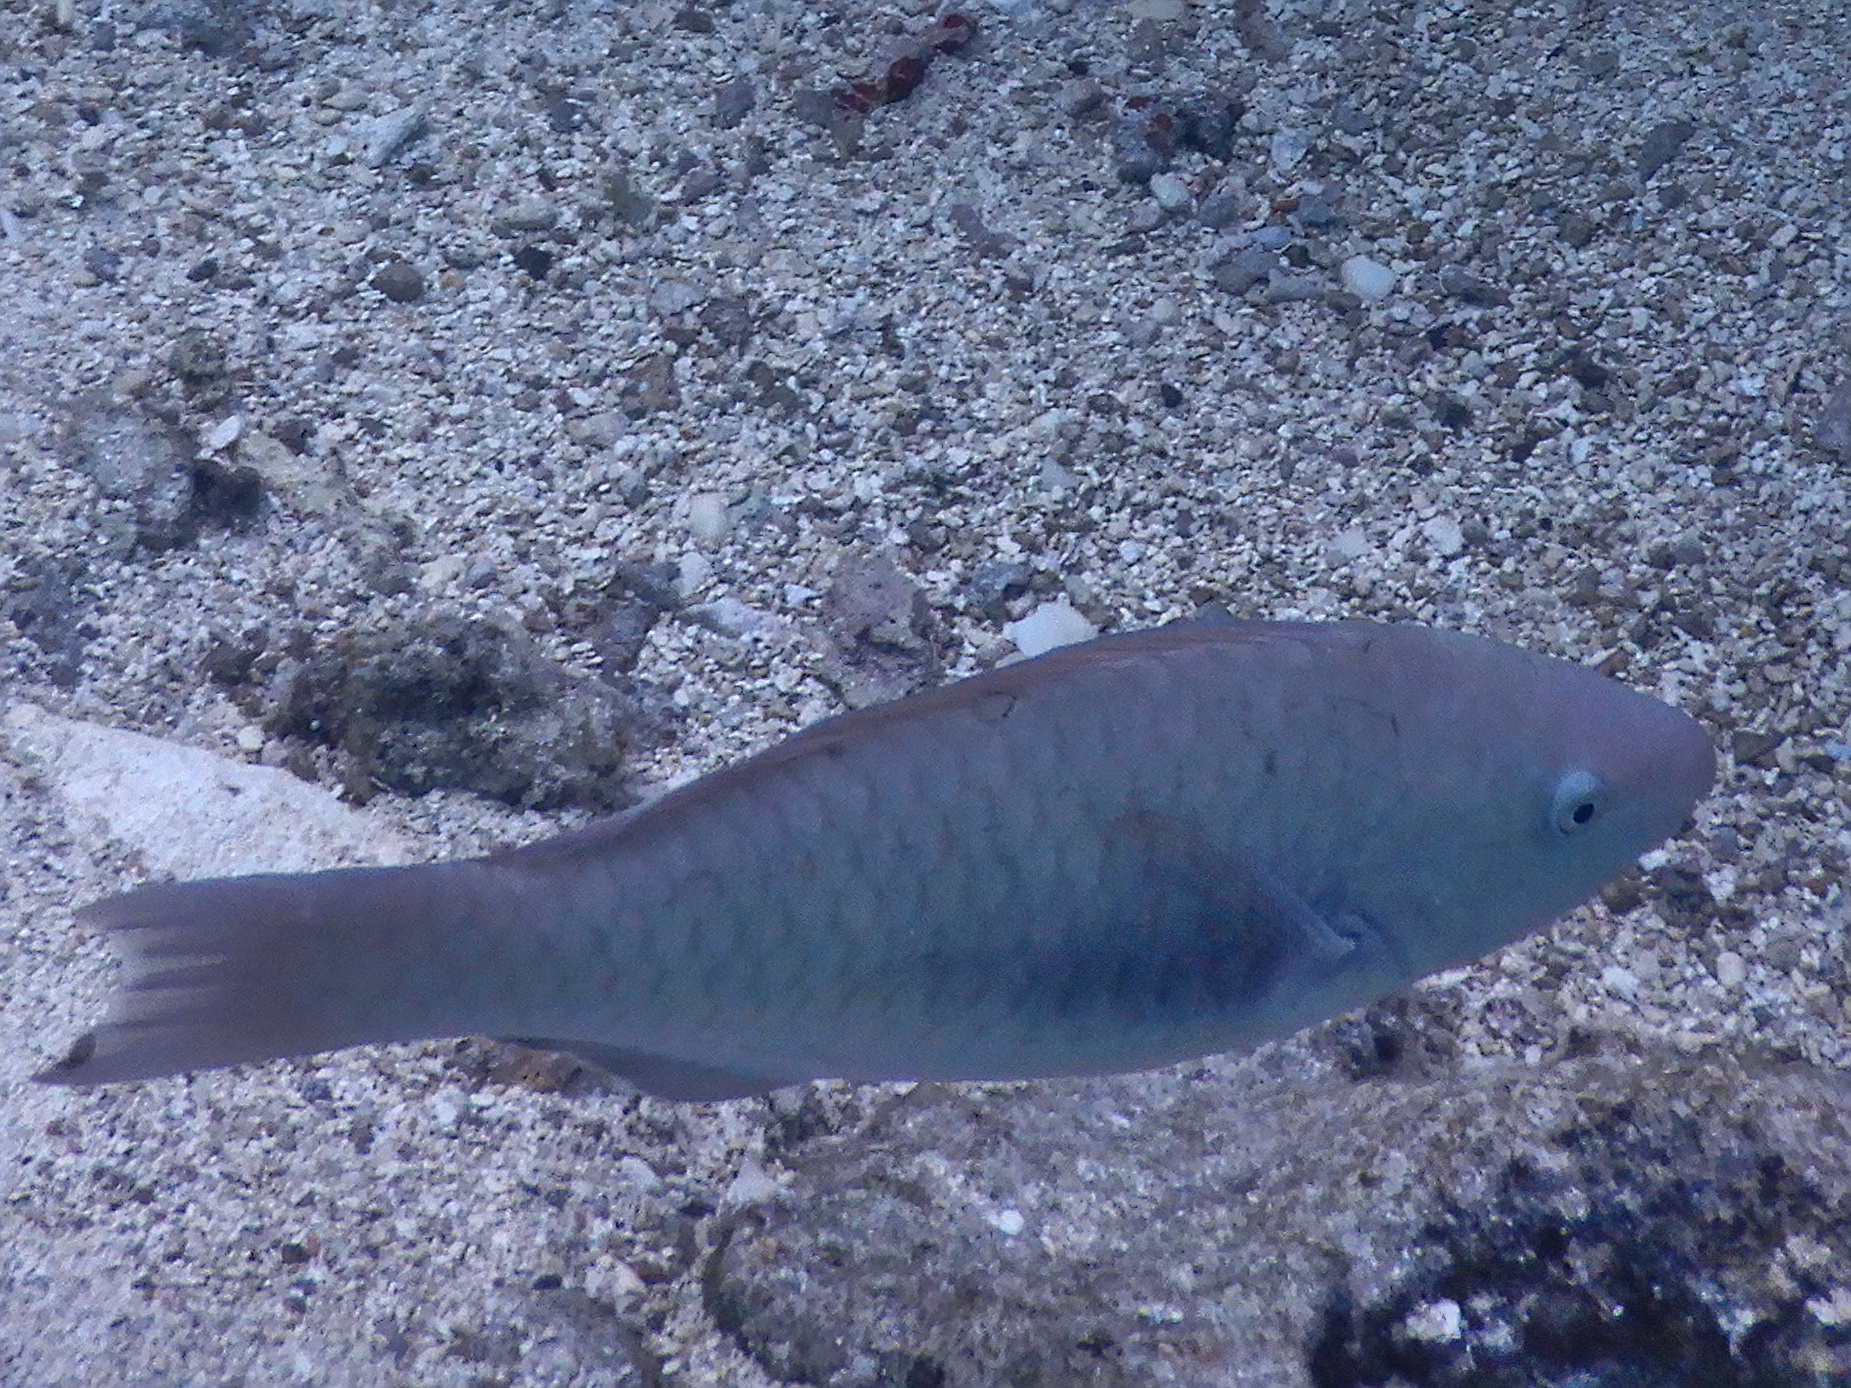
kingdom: Animalia
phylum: Chordata
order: Perciformes
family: Scaridae
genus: Scarus
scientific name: Scarus forsteni
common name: Forsten's parrotfish
